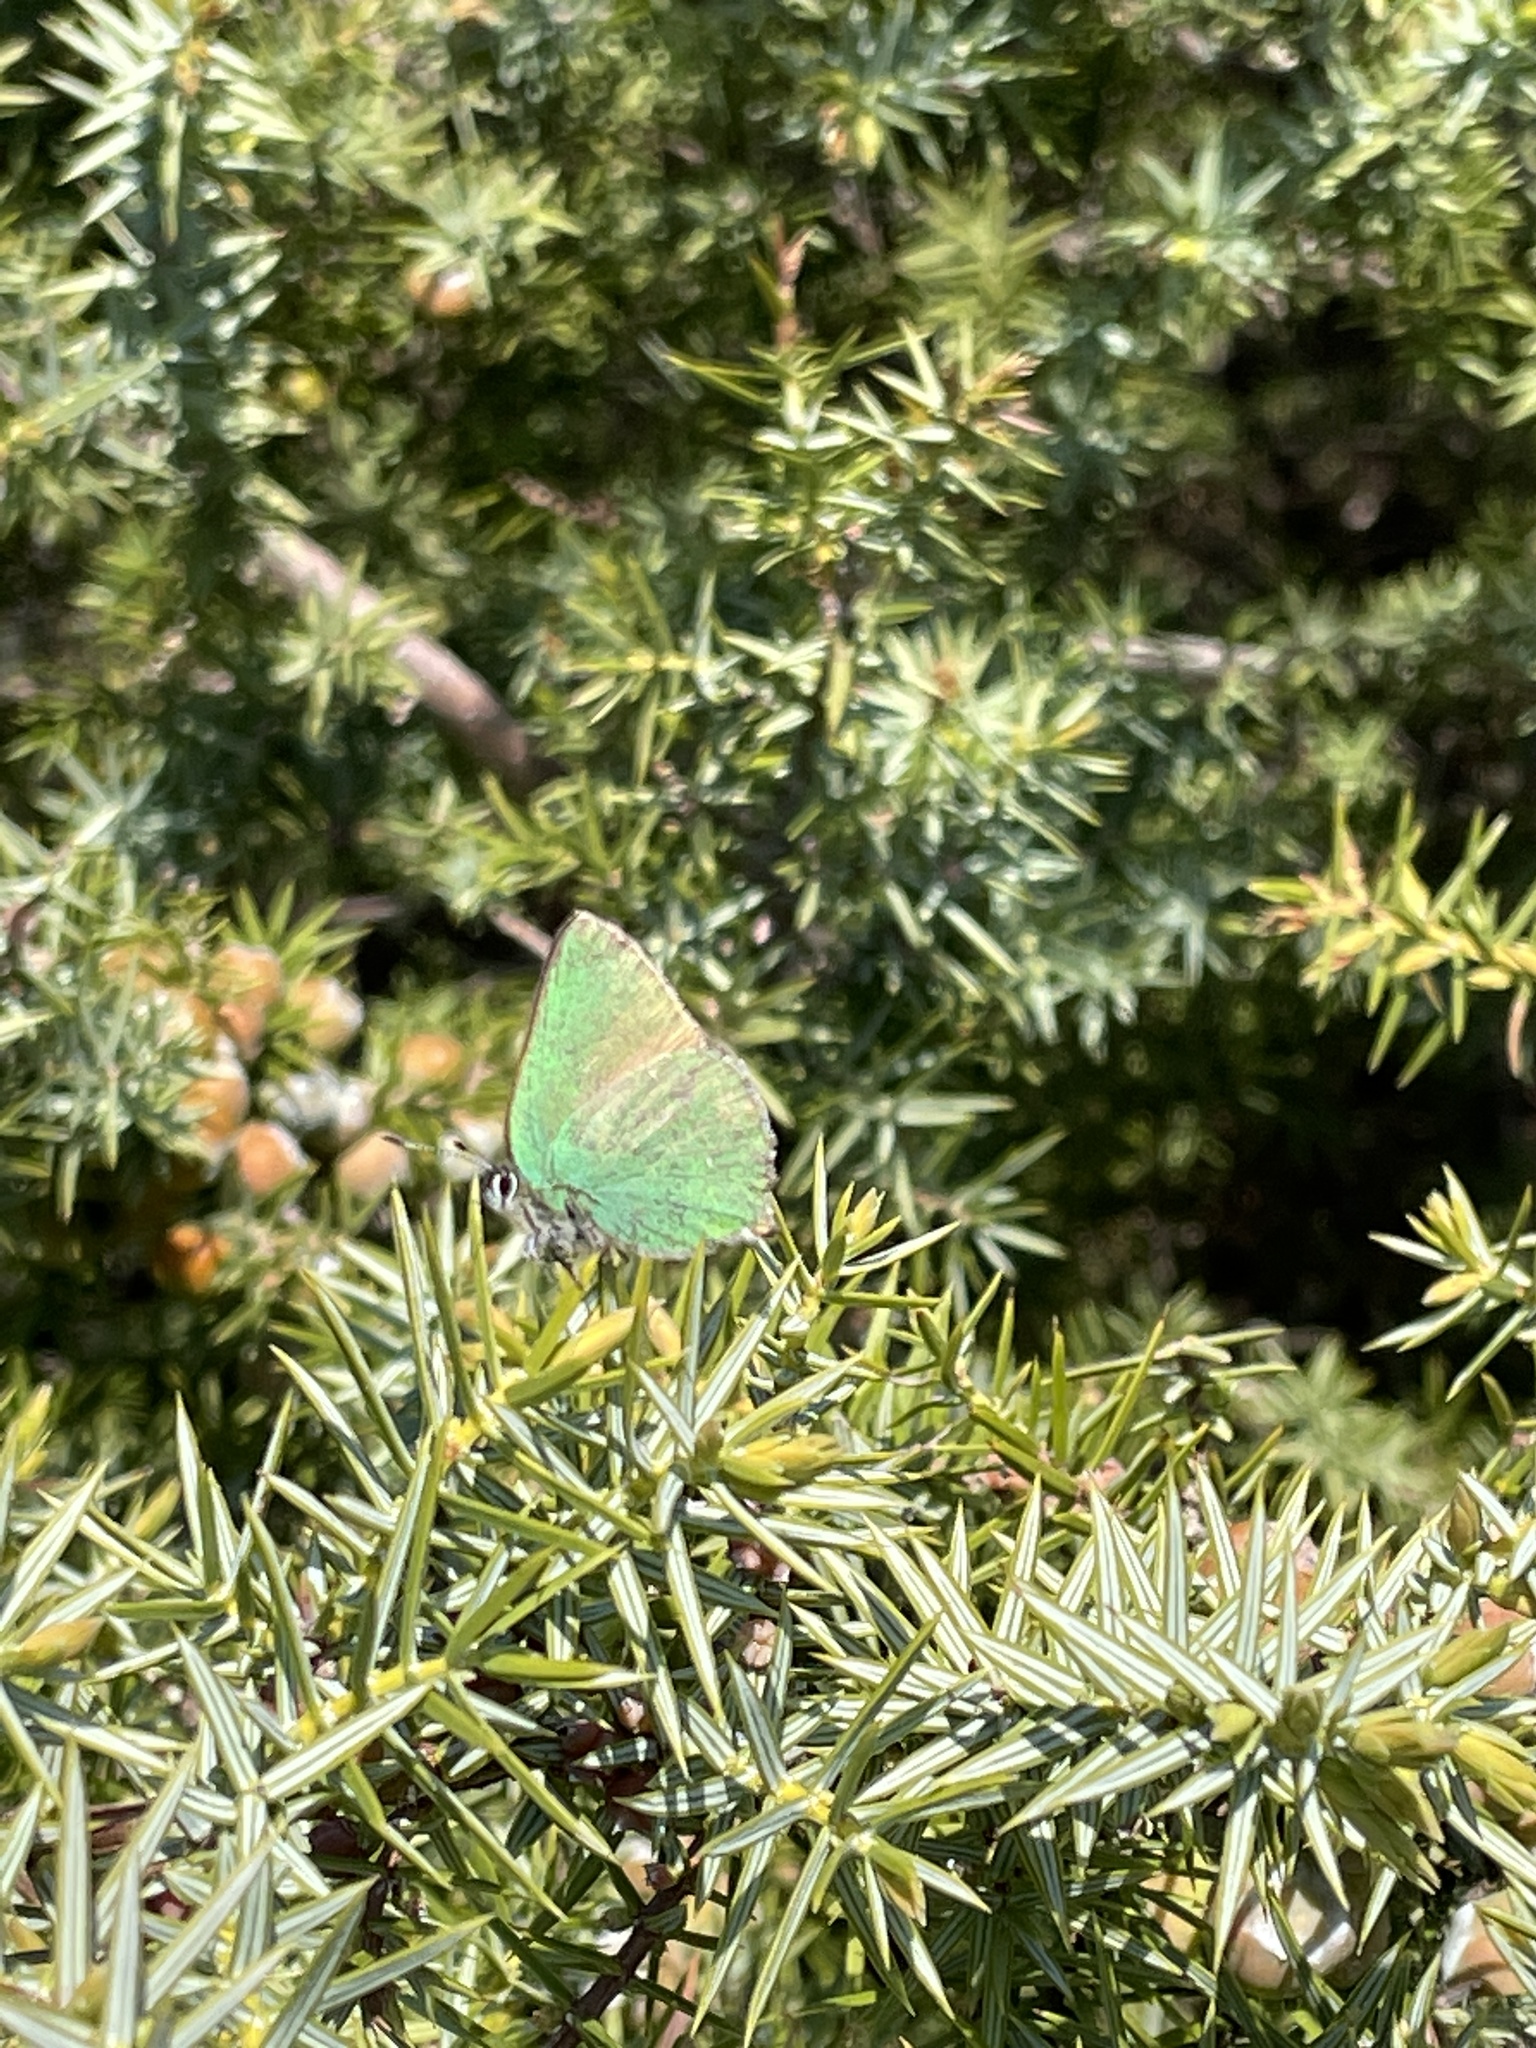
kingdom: Animalia
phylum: Arthropoda
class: Insecta
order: Lepidoptera
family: Lycaenidae
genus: Callophrys
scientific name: Callophrys rubi
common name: Green hairstreak
